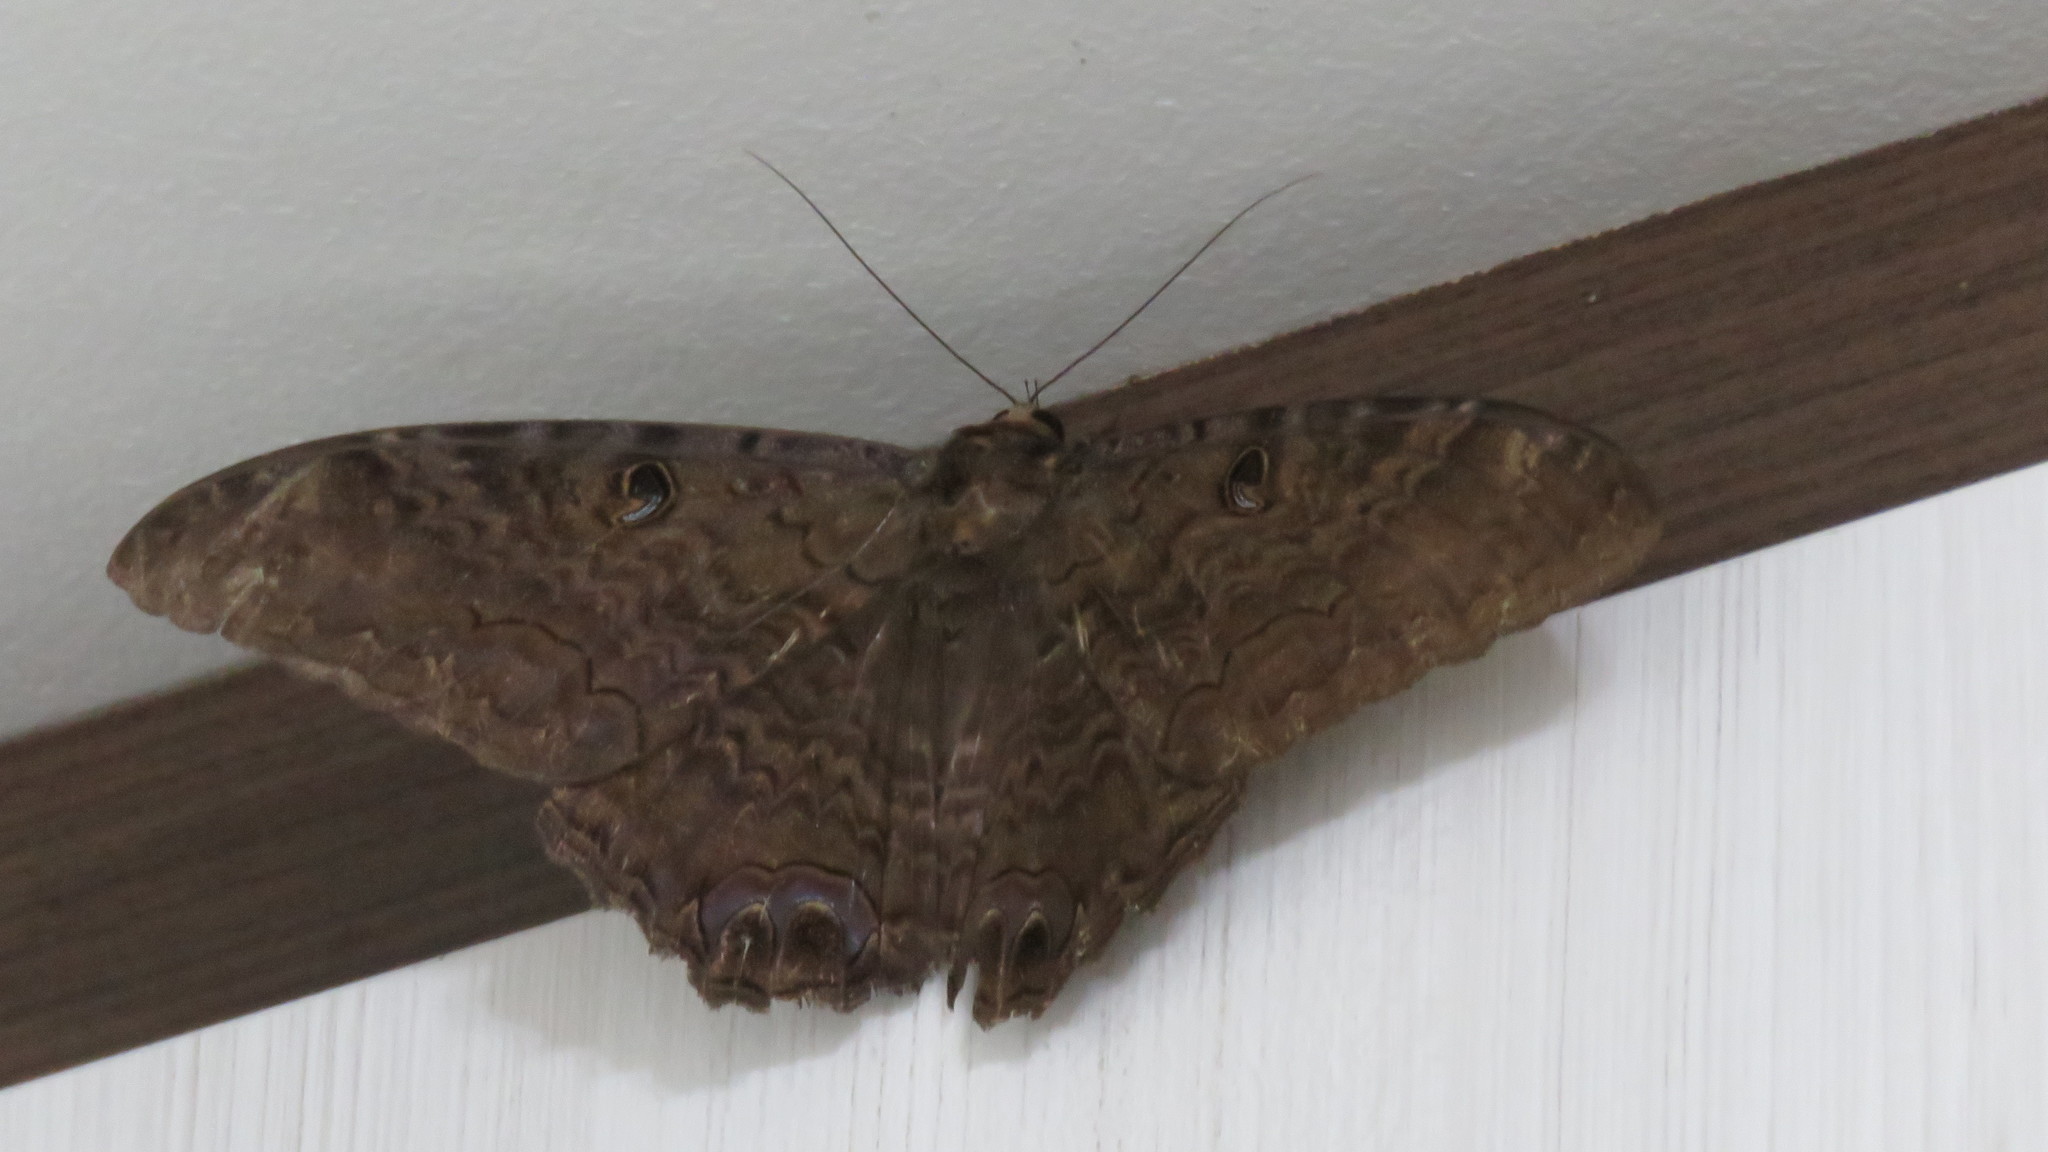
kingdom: Animalia
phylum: Arthropoda
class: Insecta
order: Lepidoptera
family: Erebidae
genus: Ascalapha
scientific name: Ascalapha odorata
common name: Black witch
